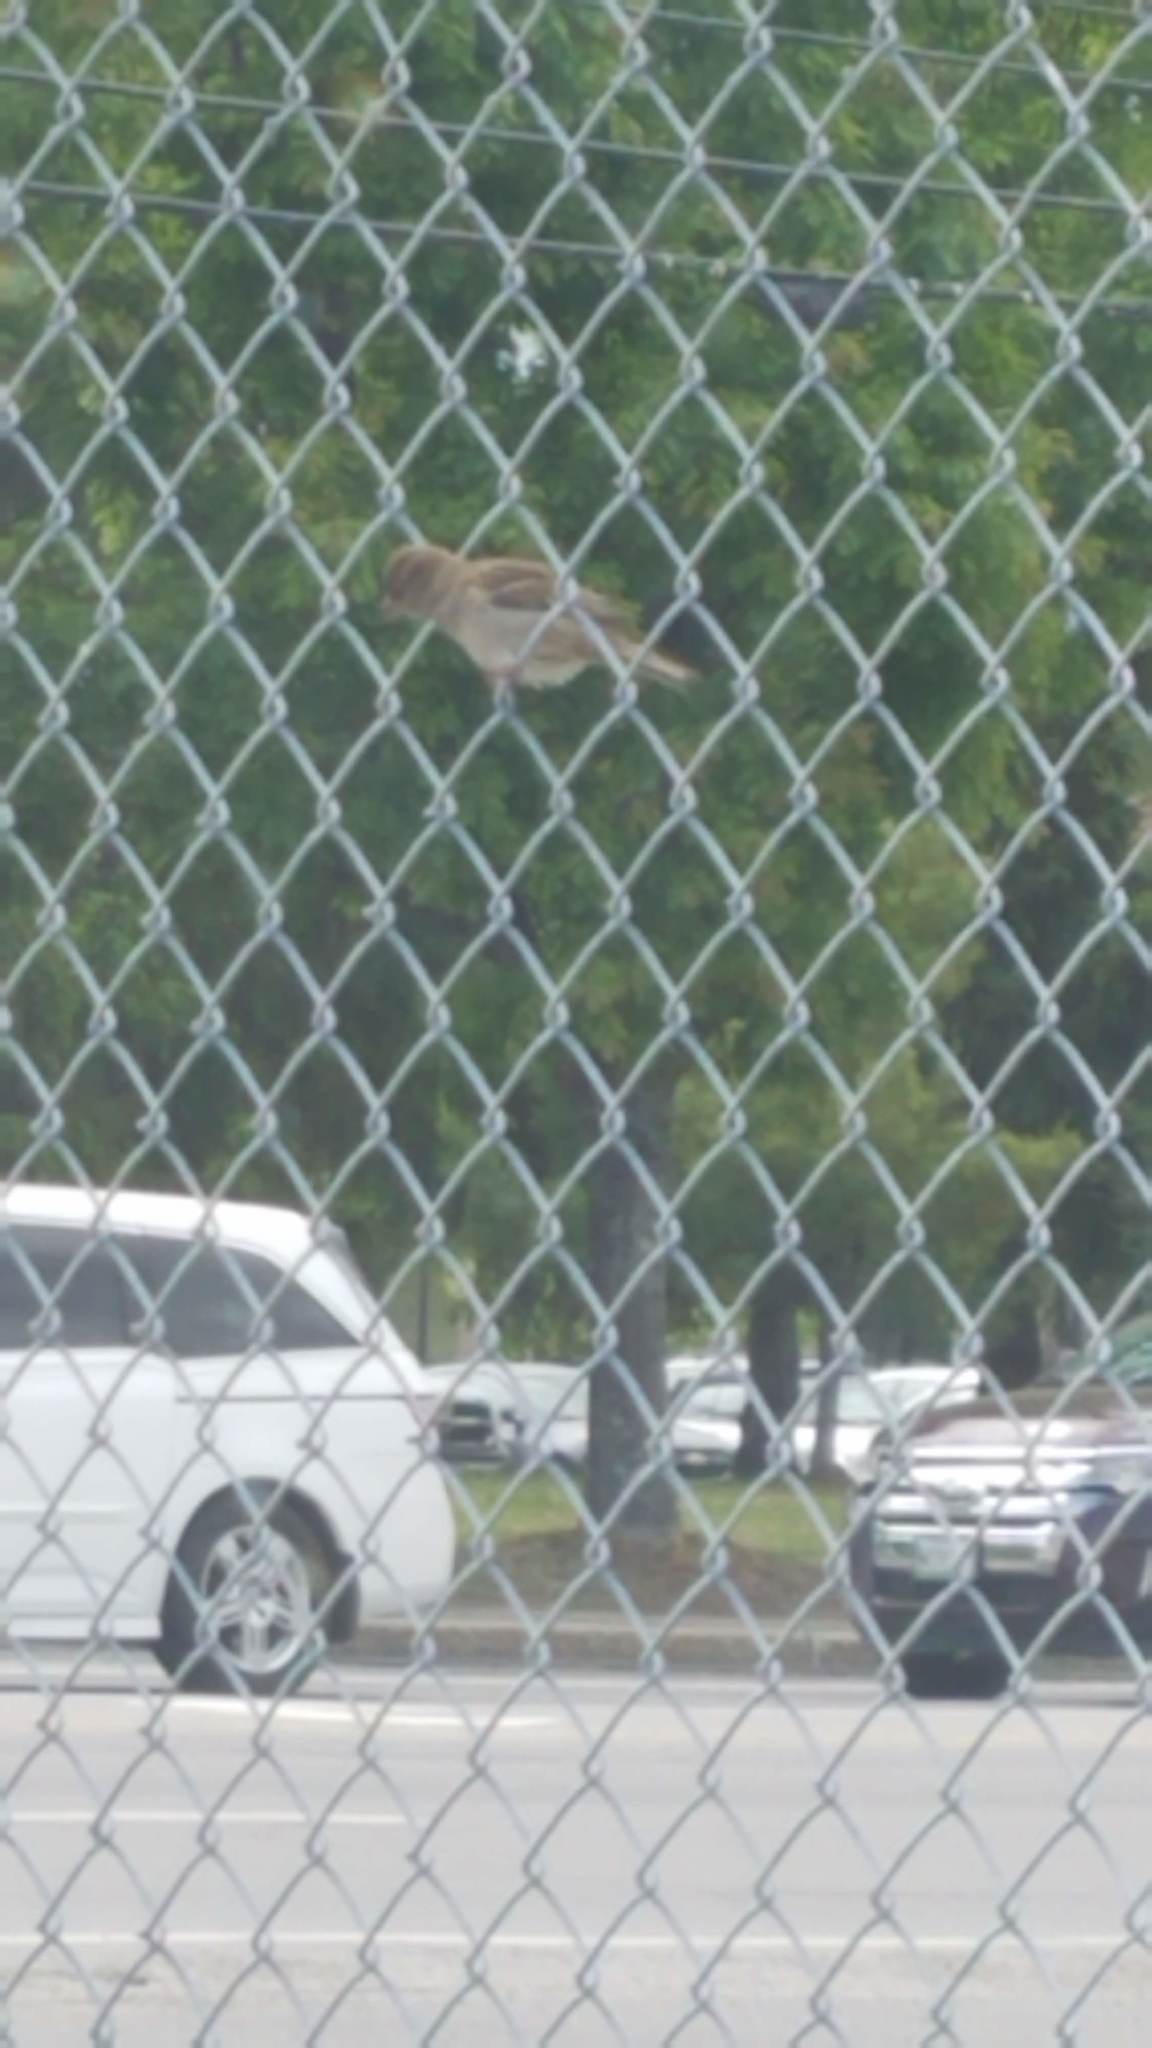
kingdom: Animalia
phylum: Chordata
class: Aves
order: Passeriformes
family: Passeridae
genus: Passer
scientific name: Passer domesticus
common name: House sparrow
